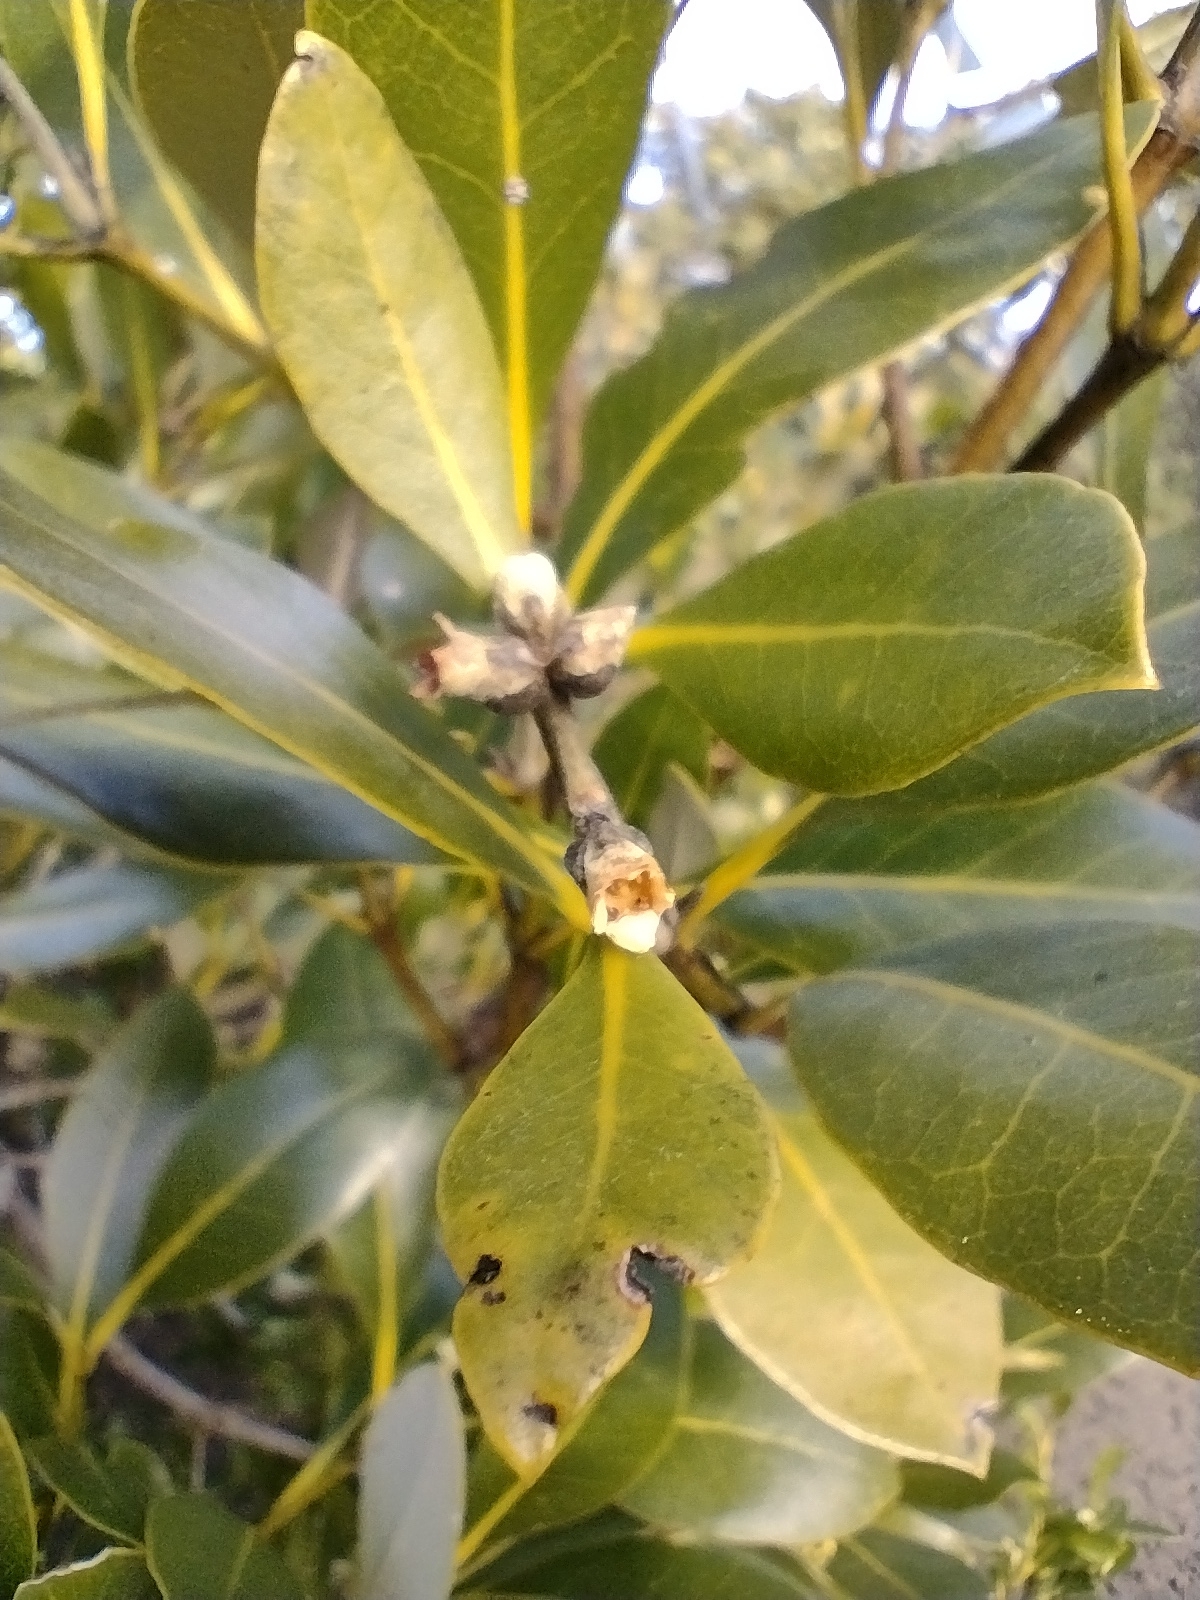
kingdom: Plantae
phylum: Tracheophyta
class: Magnoliopsida
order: Lamiales
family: Acanthaceae
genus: Avicennia
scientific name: Avicennia marina
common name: Gray mangrove
